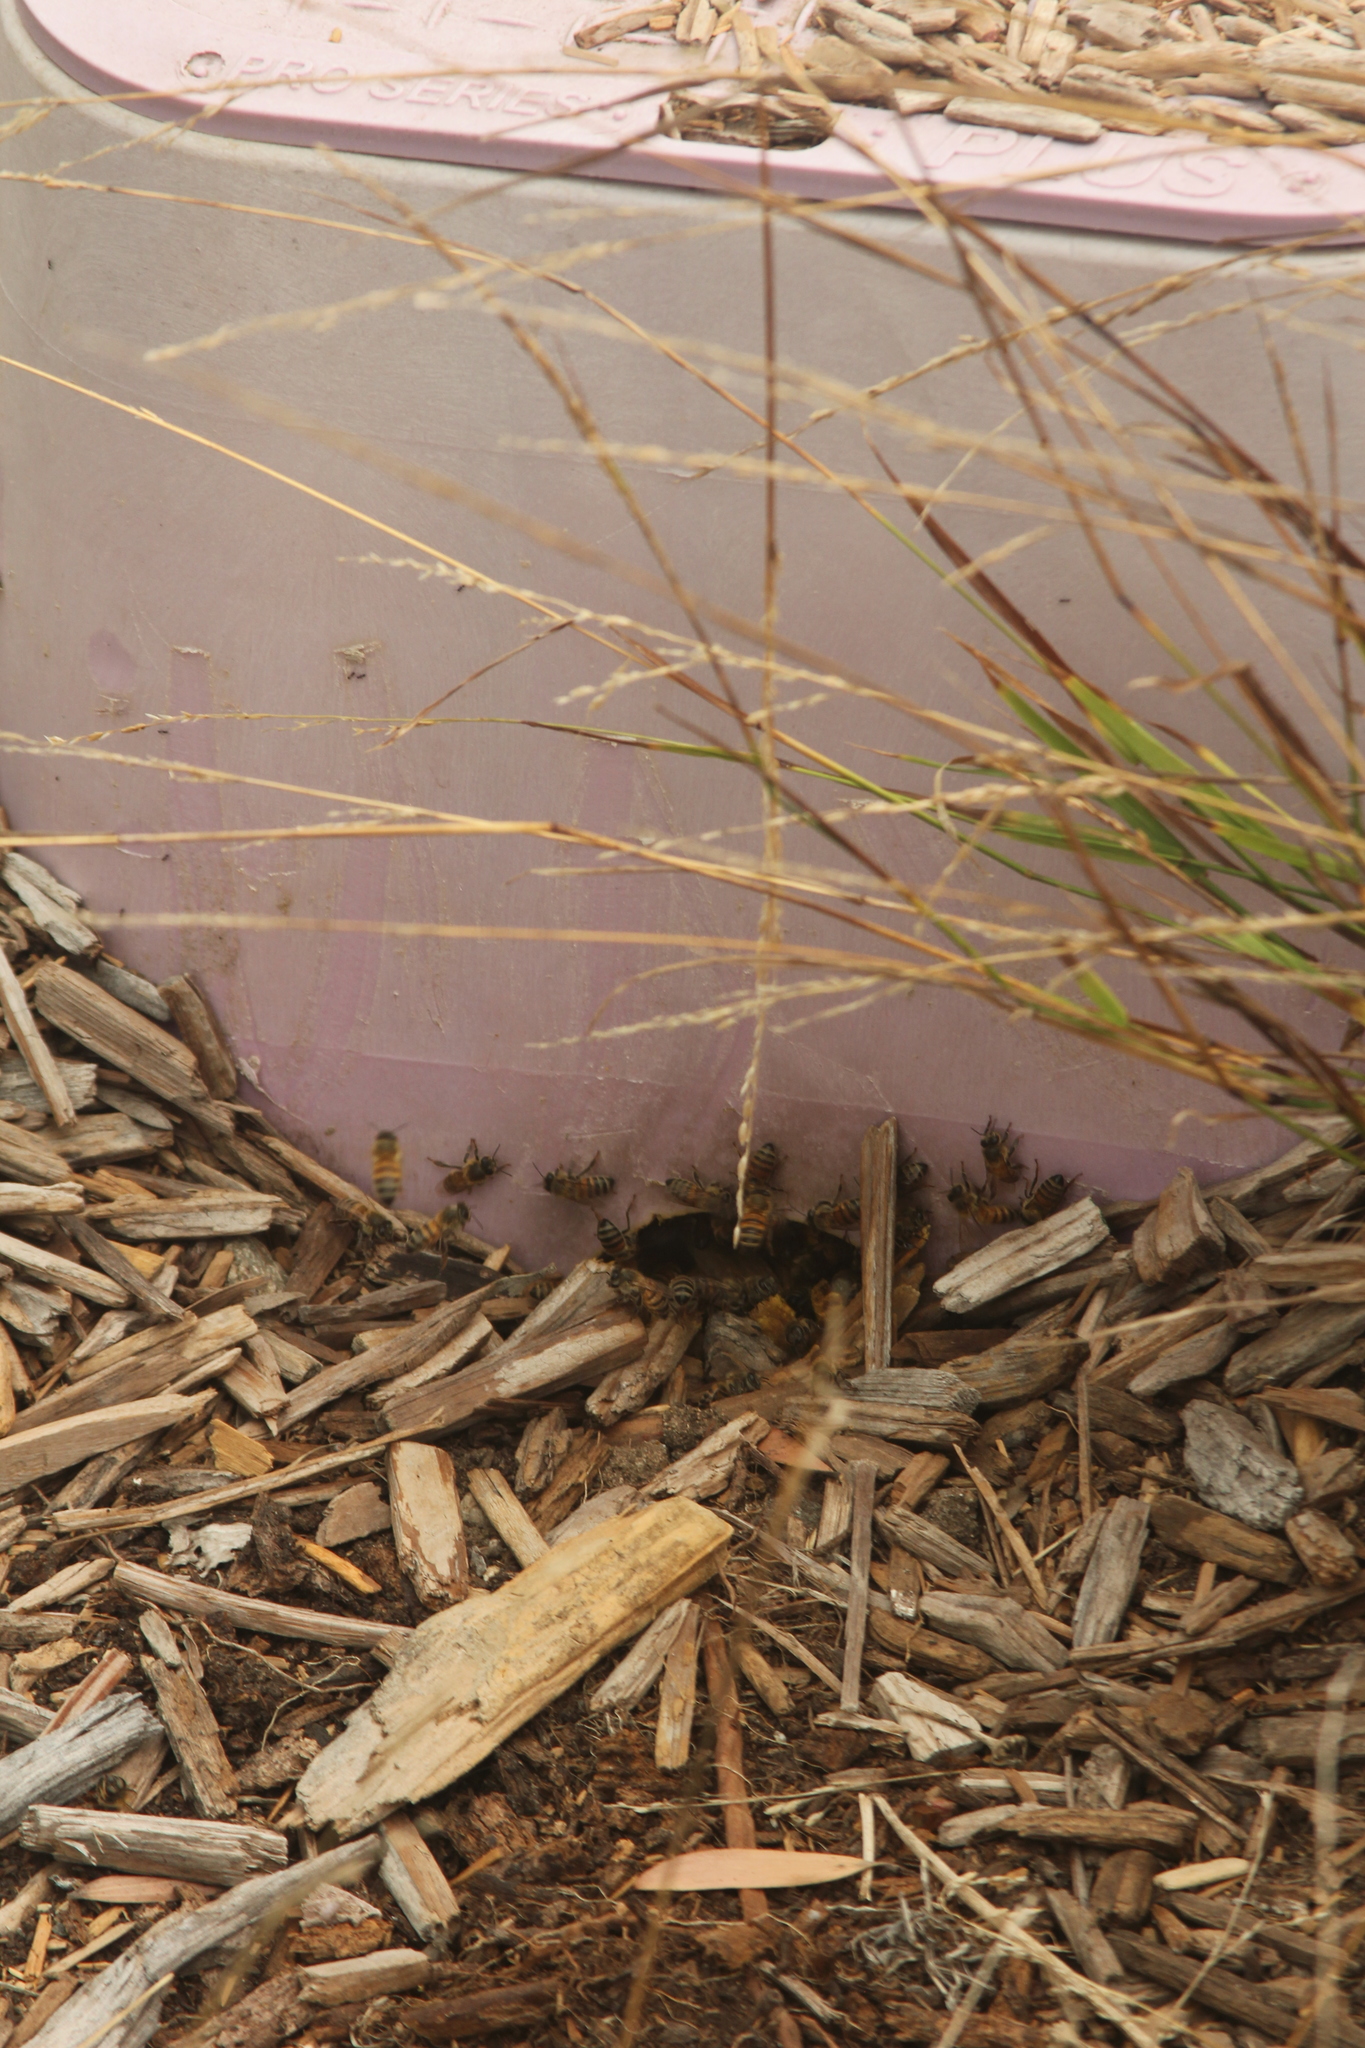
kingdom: Animalia
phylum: Arthropoda
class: Insecta
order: Hymenoptera
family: Apidae
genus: Apis
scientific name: Apis mellifera
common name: Honey bee
